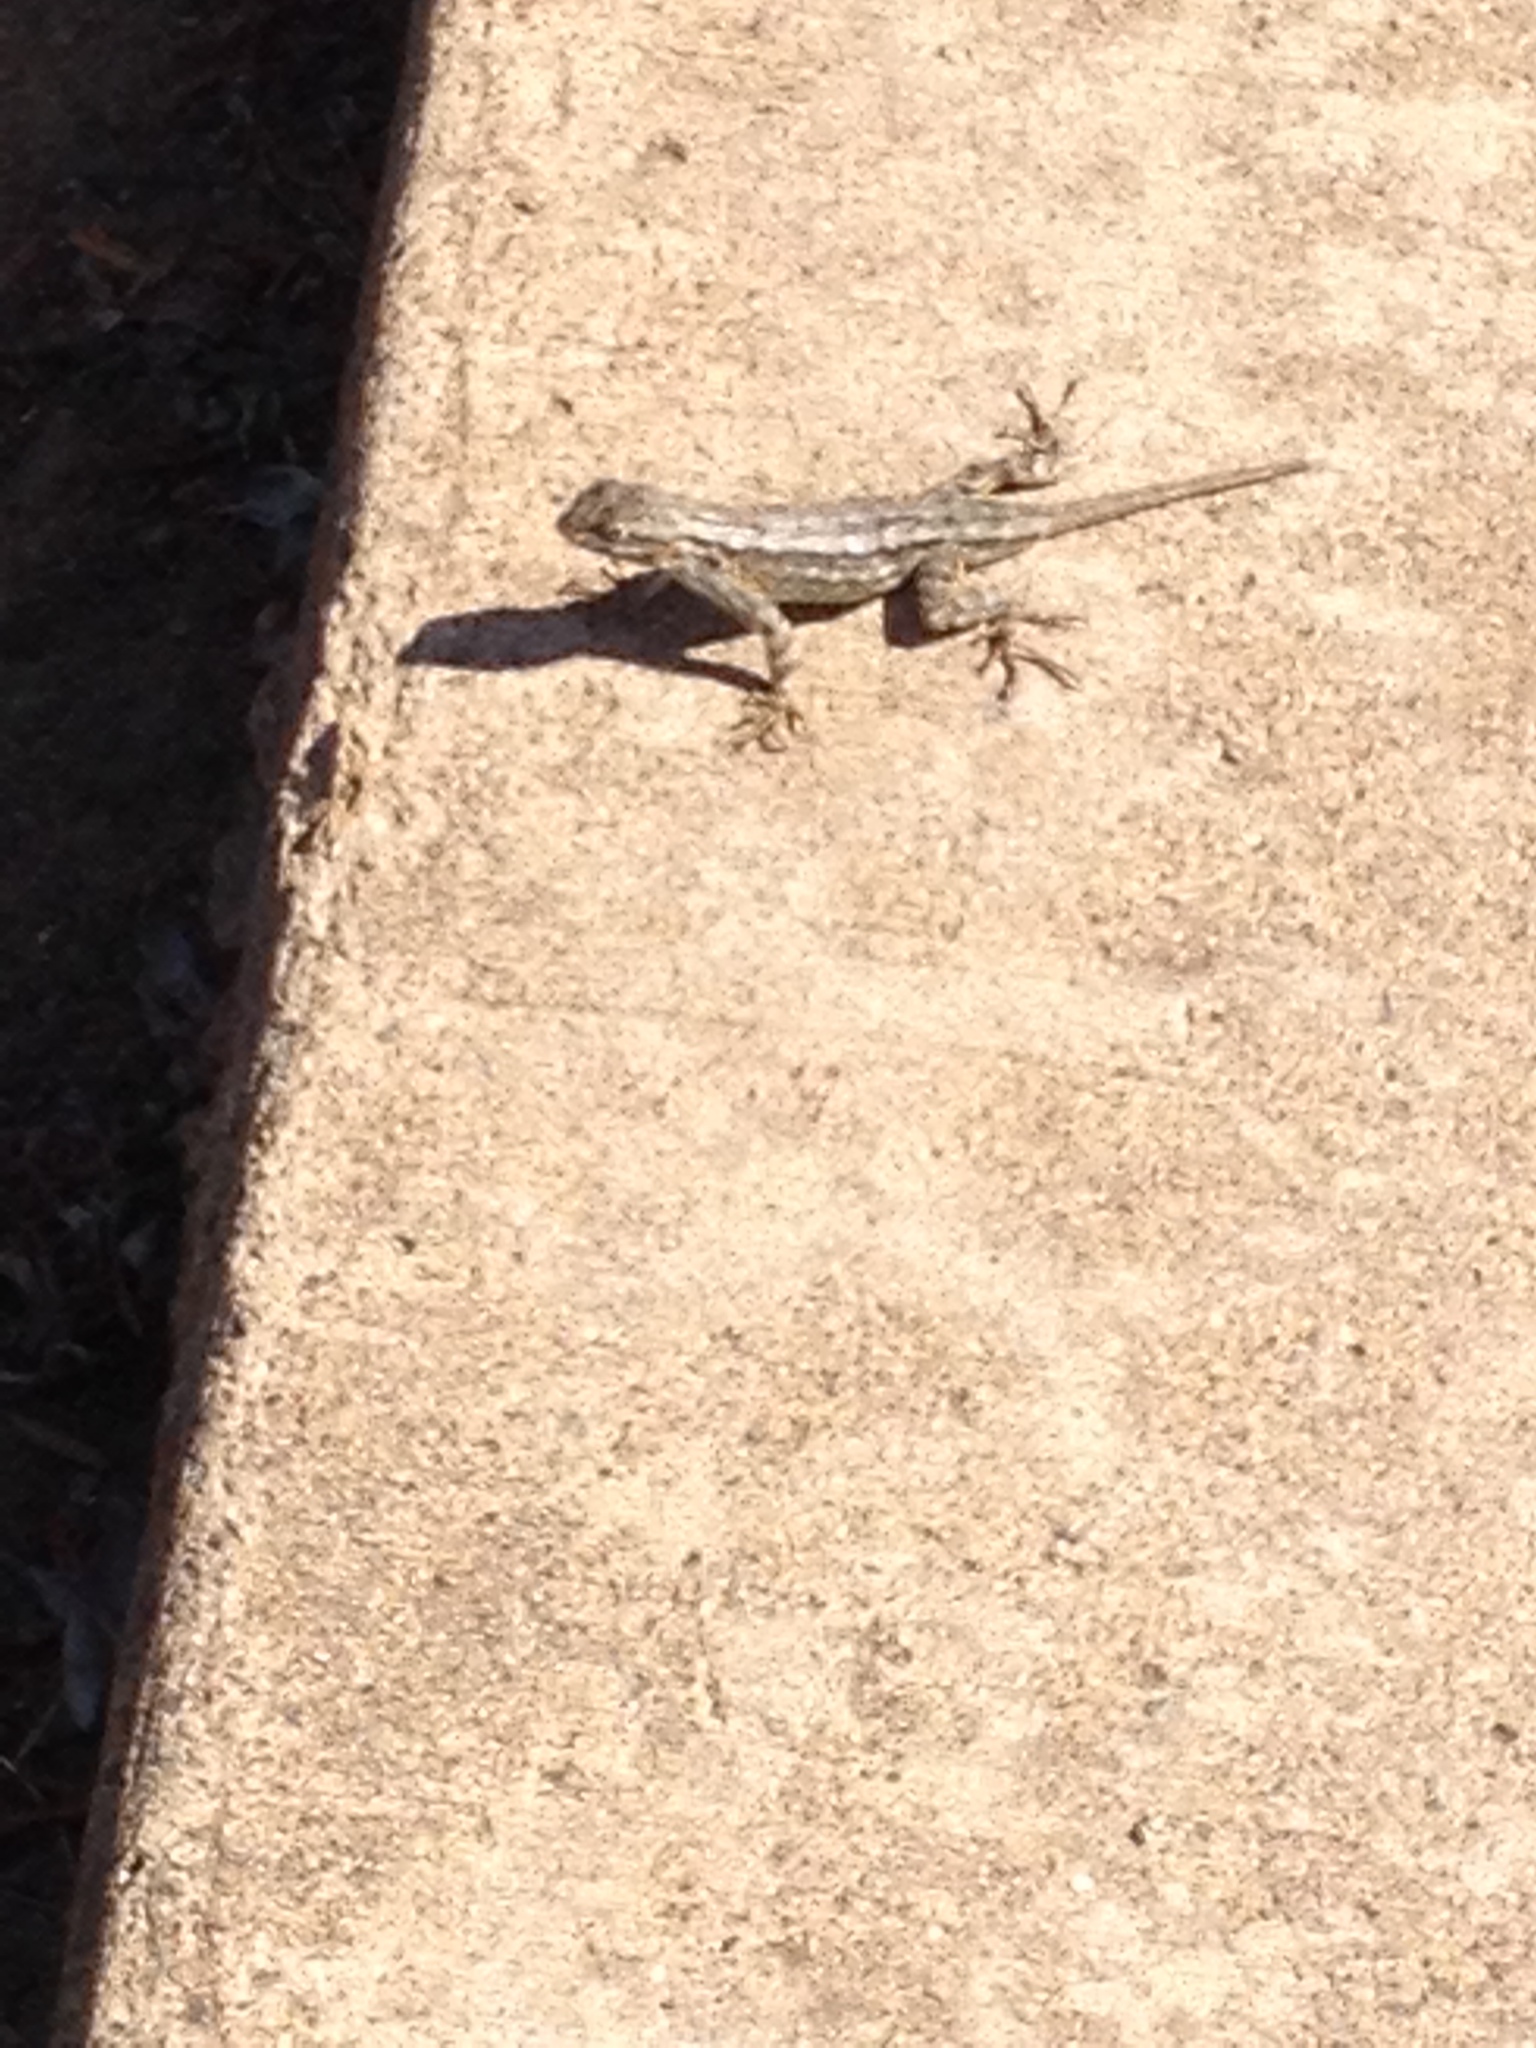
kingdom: Animalia
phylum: Chordata
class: Squamata
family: Phrynosomatidae
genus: Sceloporus
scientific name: Sceloporus occidentalis
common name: Western fence lizard
